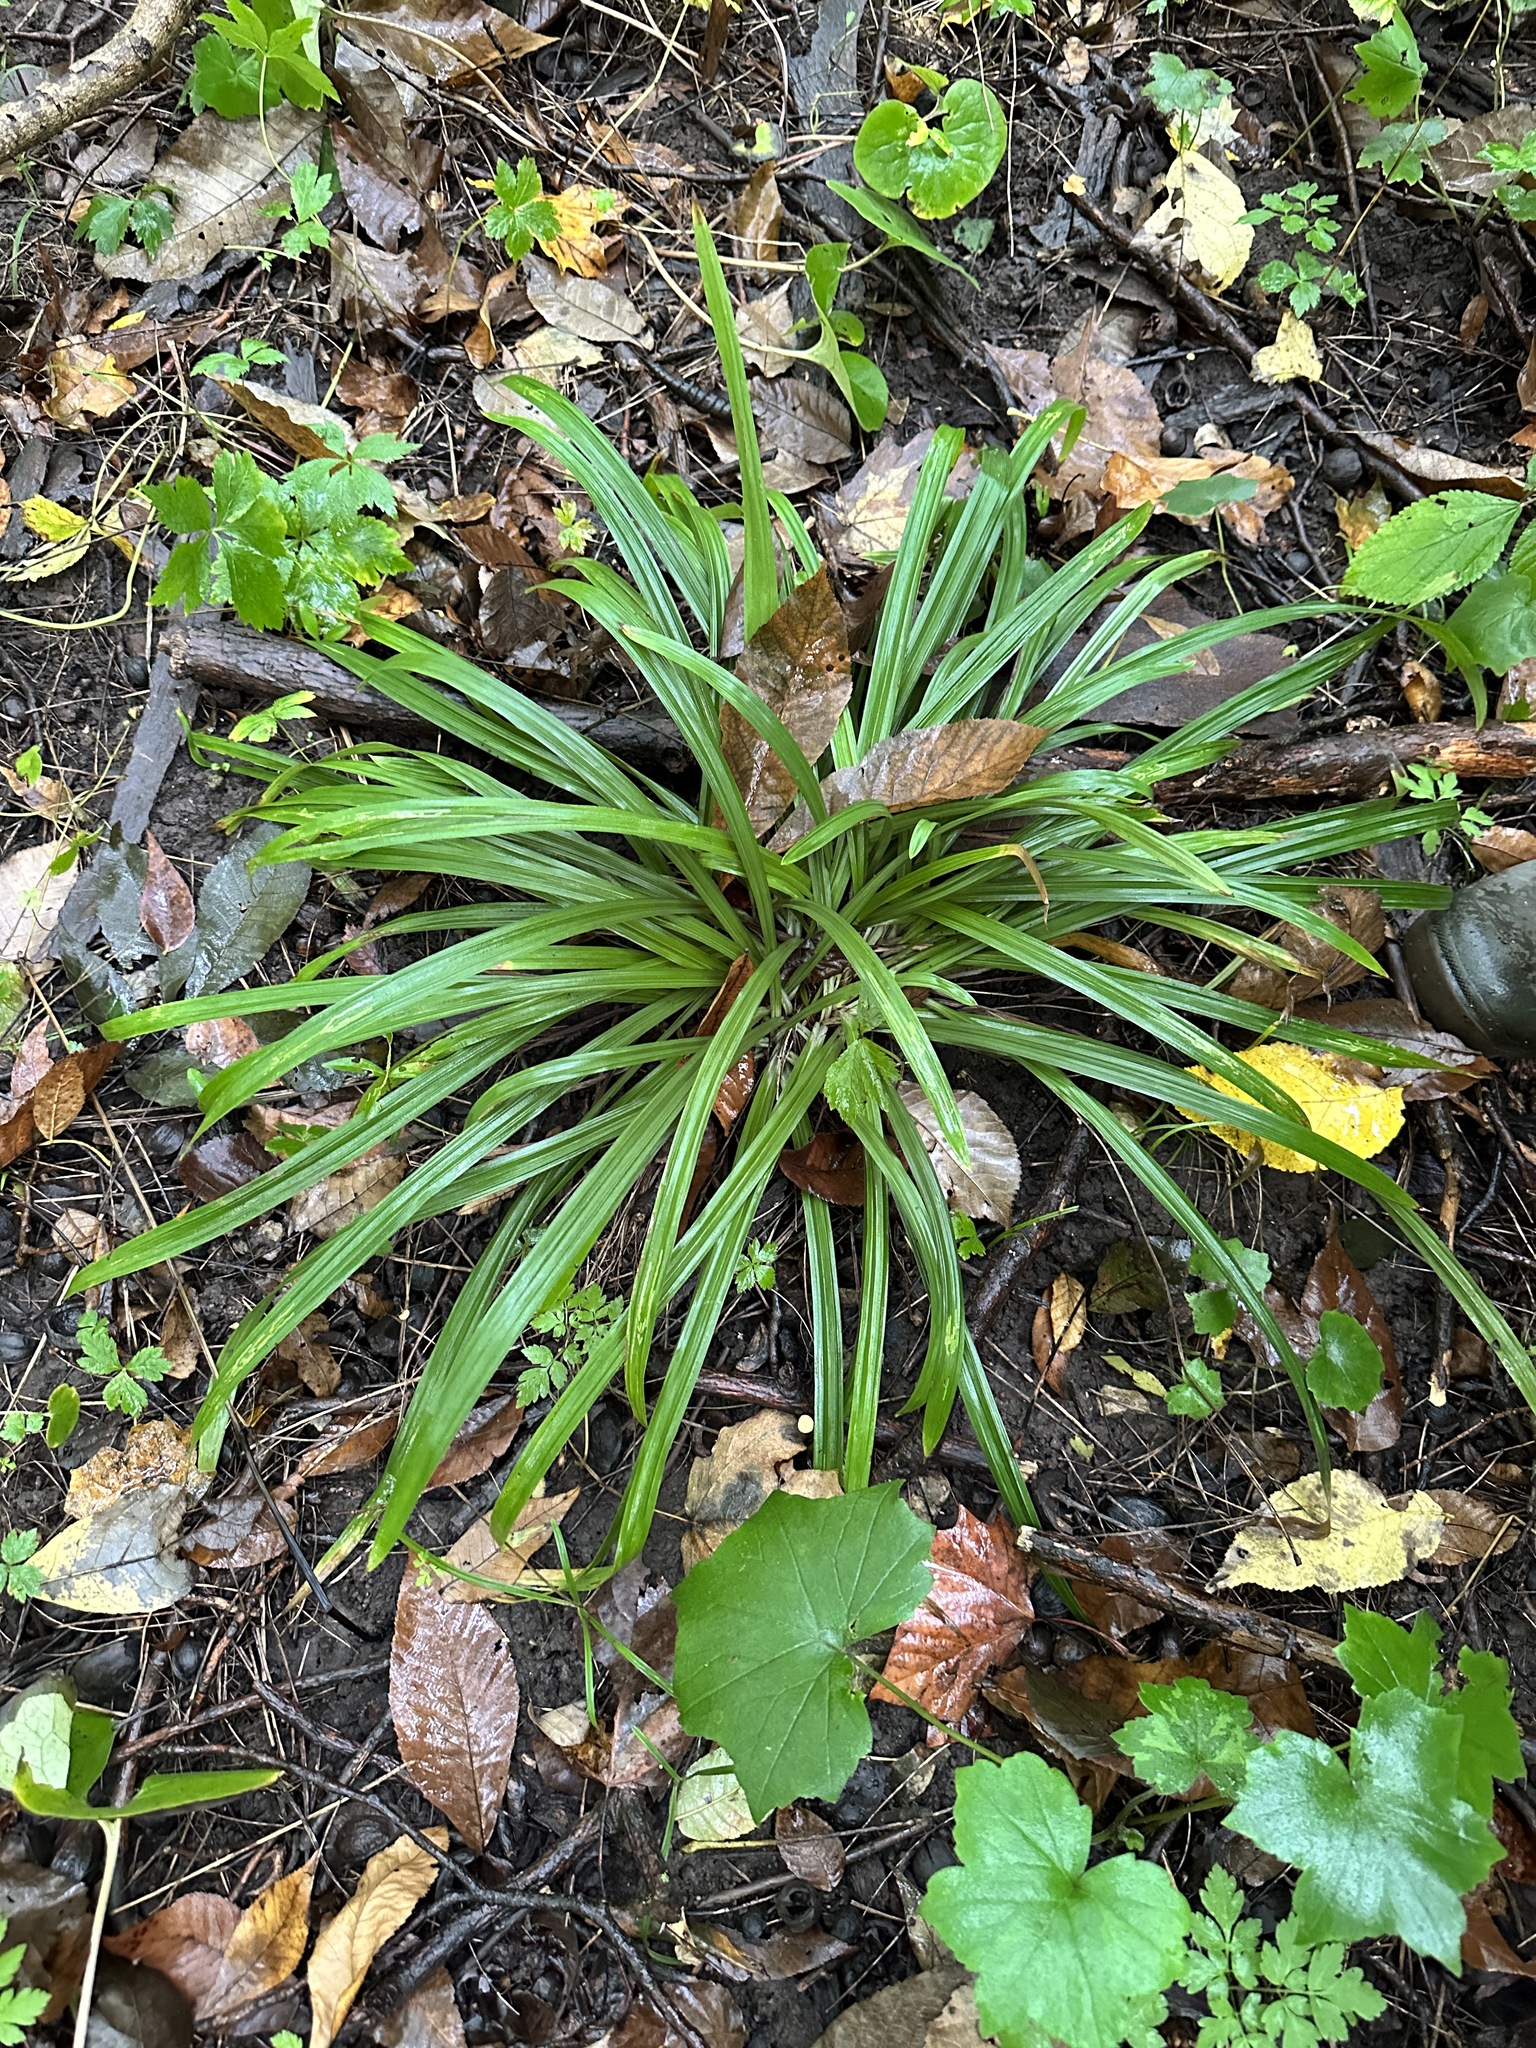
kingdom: Plantae
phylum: Tracheophyta
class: Liliopsida
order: Poales
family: Cyperaceae
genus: Carex
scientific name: Carex
